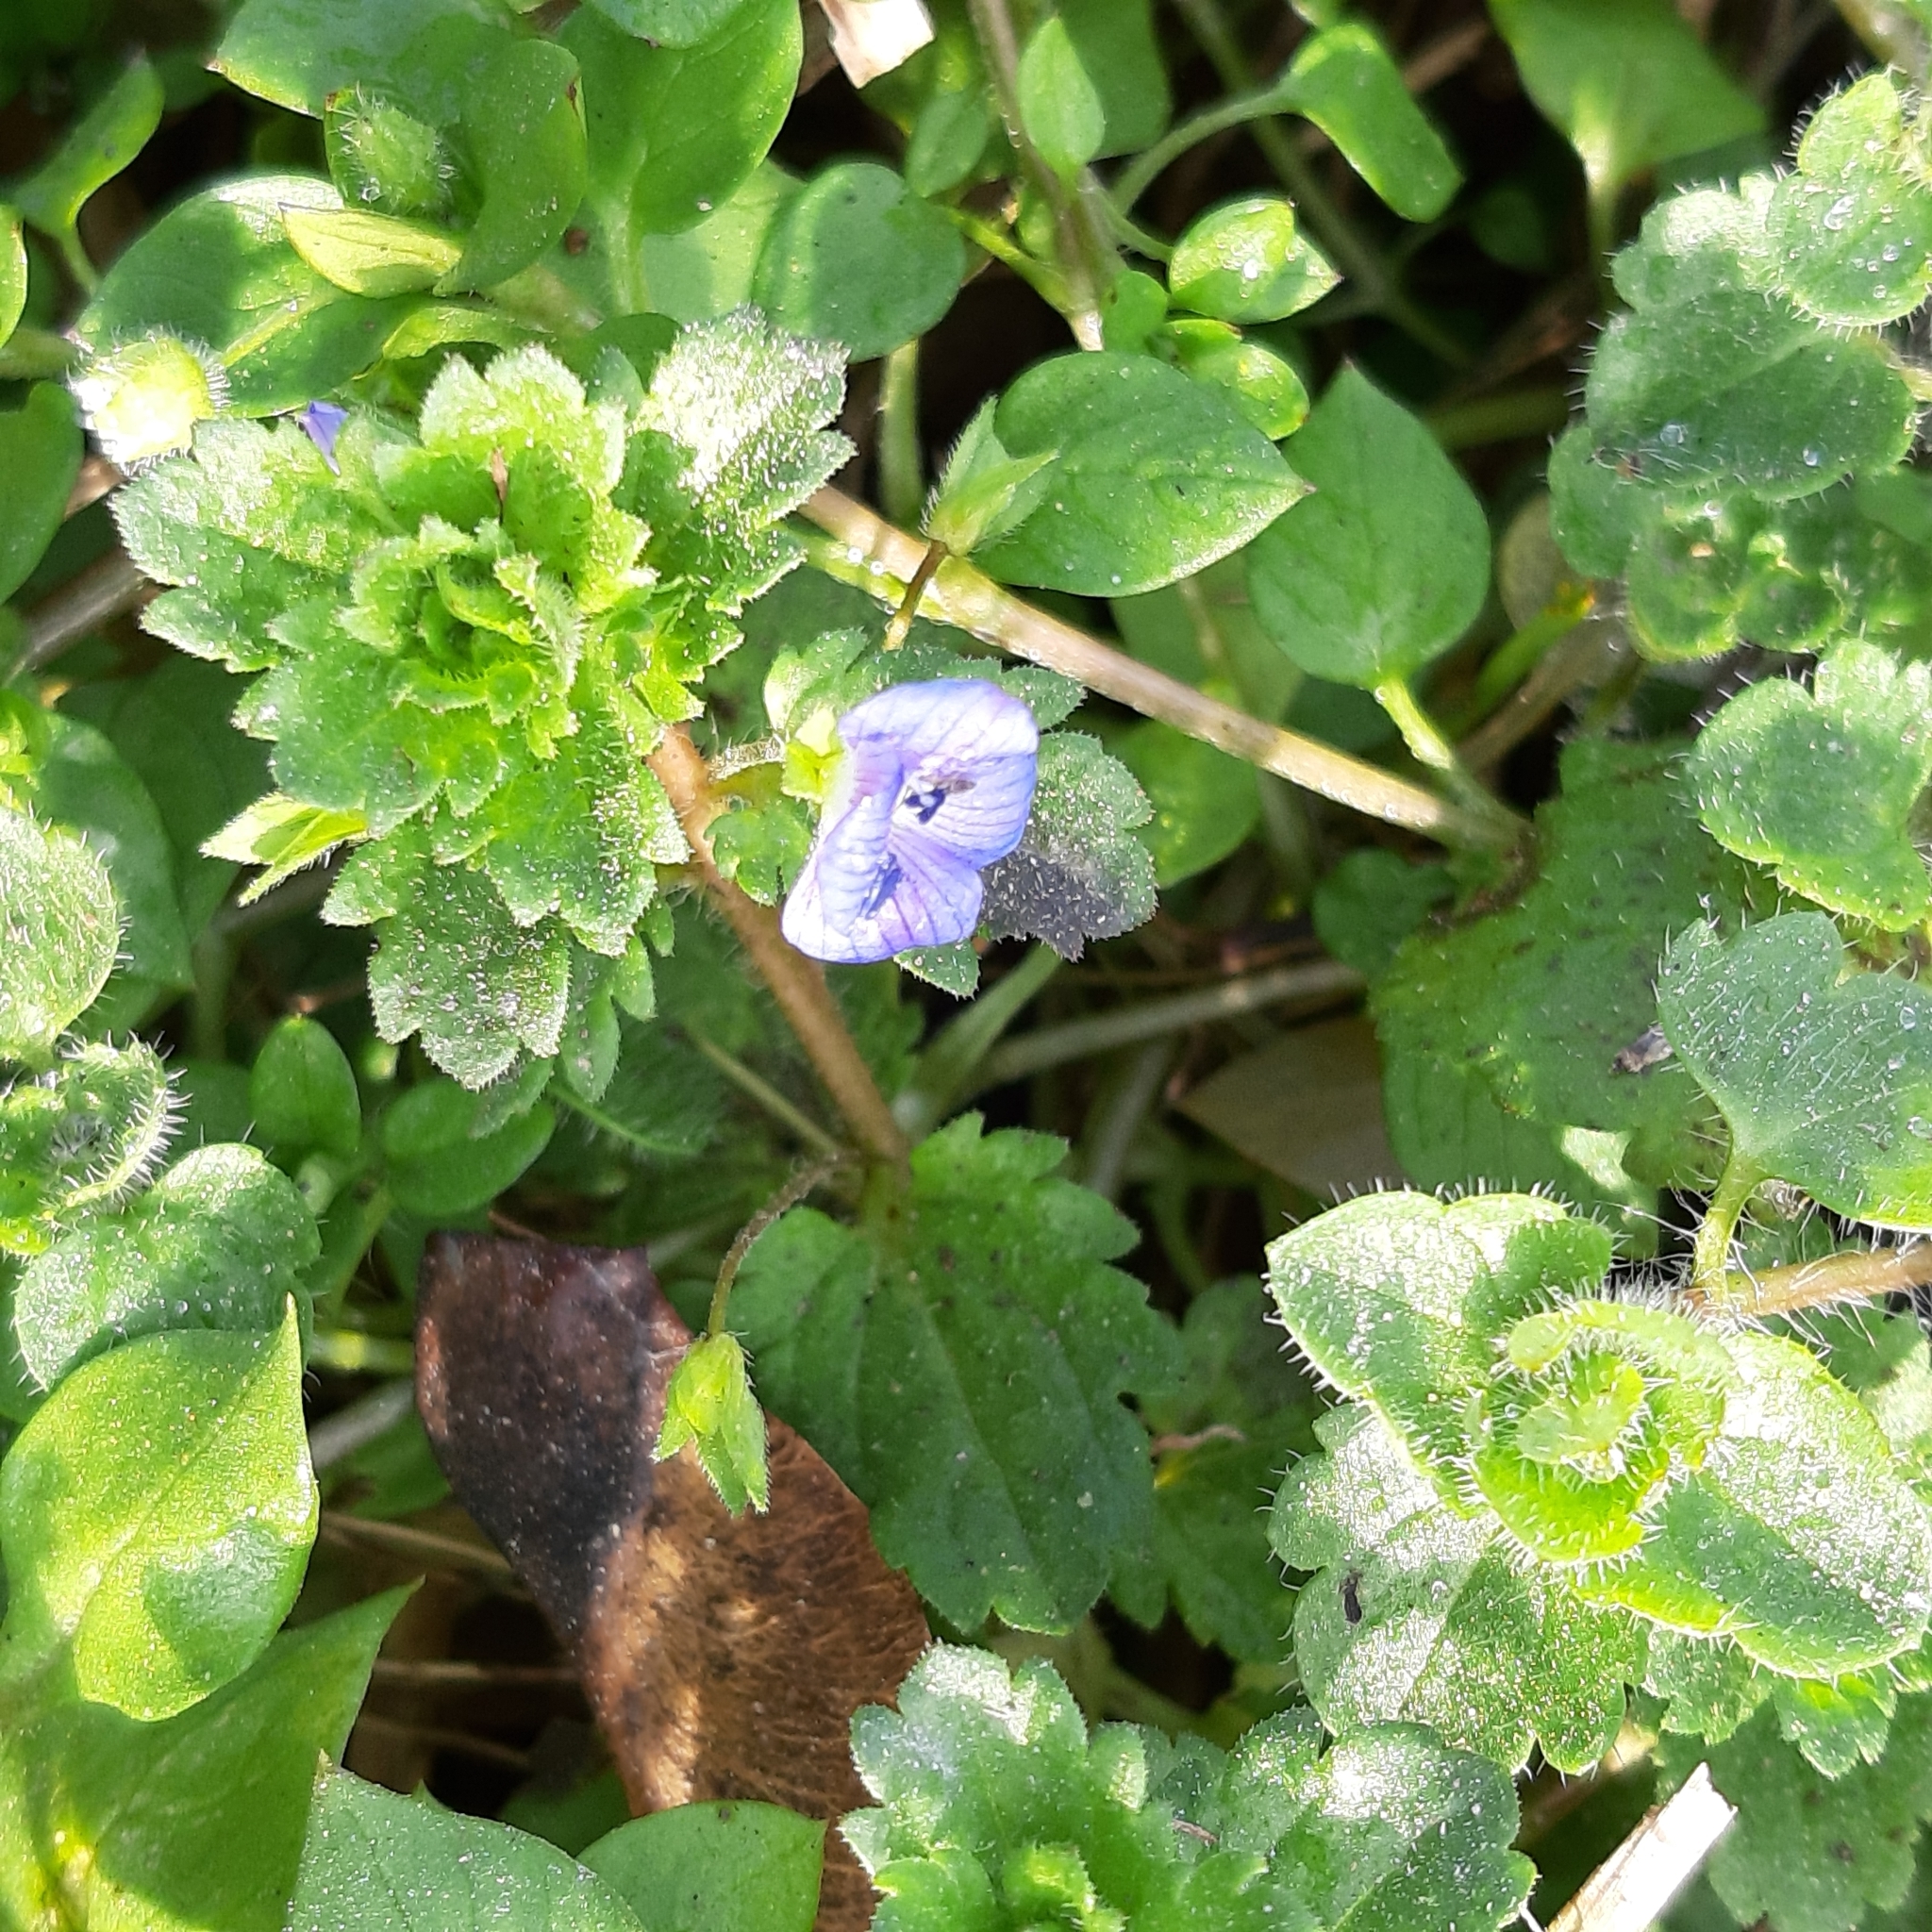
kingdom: Plantae
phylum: Tracheophyta
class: Magnoliopsida
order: Lamiales
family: Plantaginaceae
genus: Veronica
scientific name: Veronica persica
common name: Common field-speedwell
